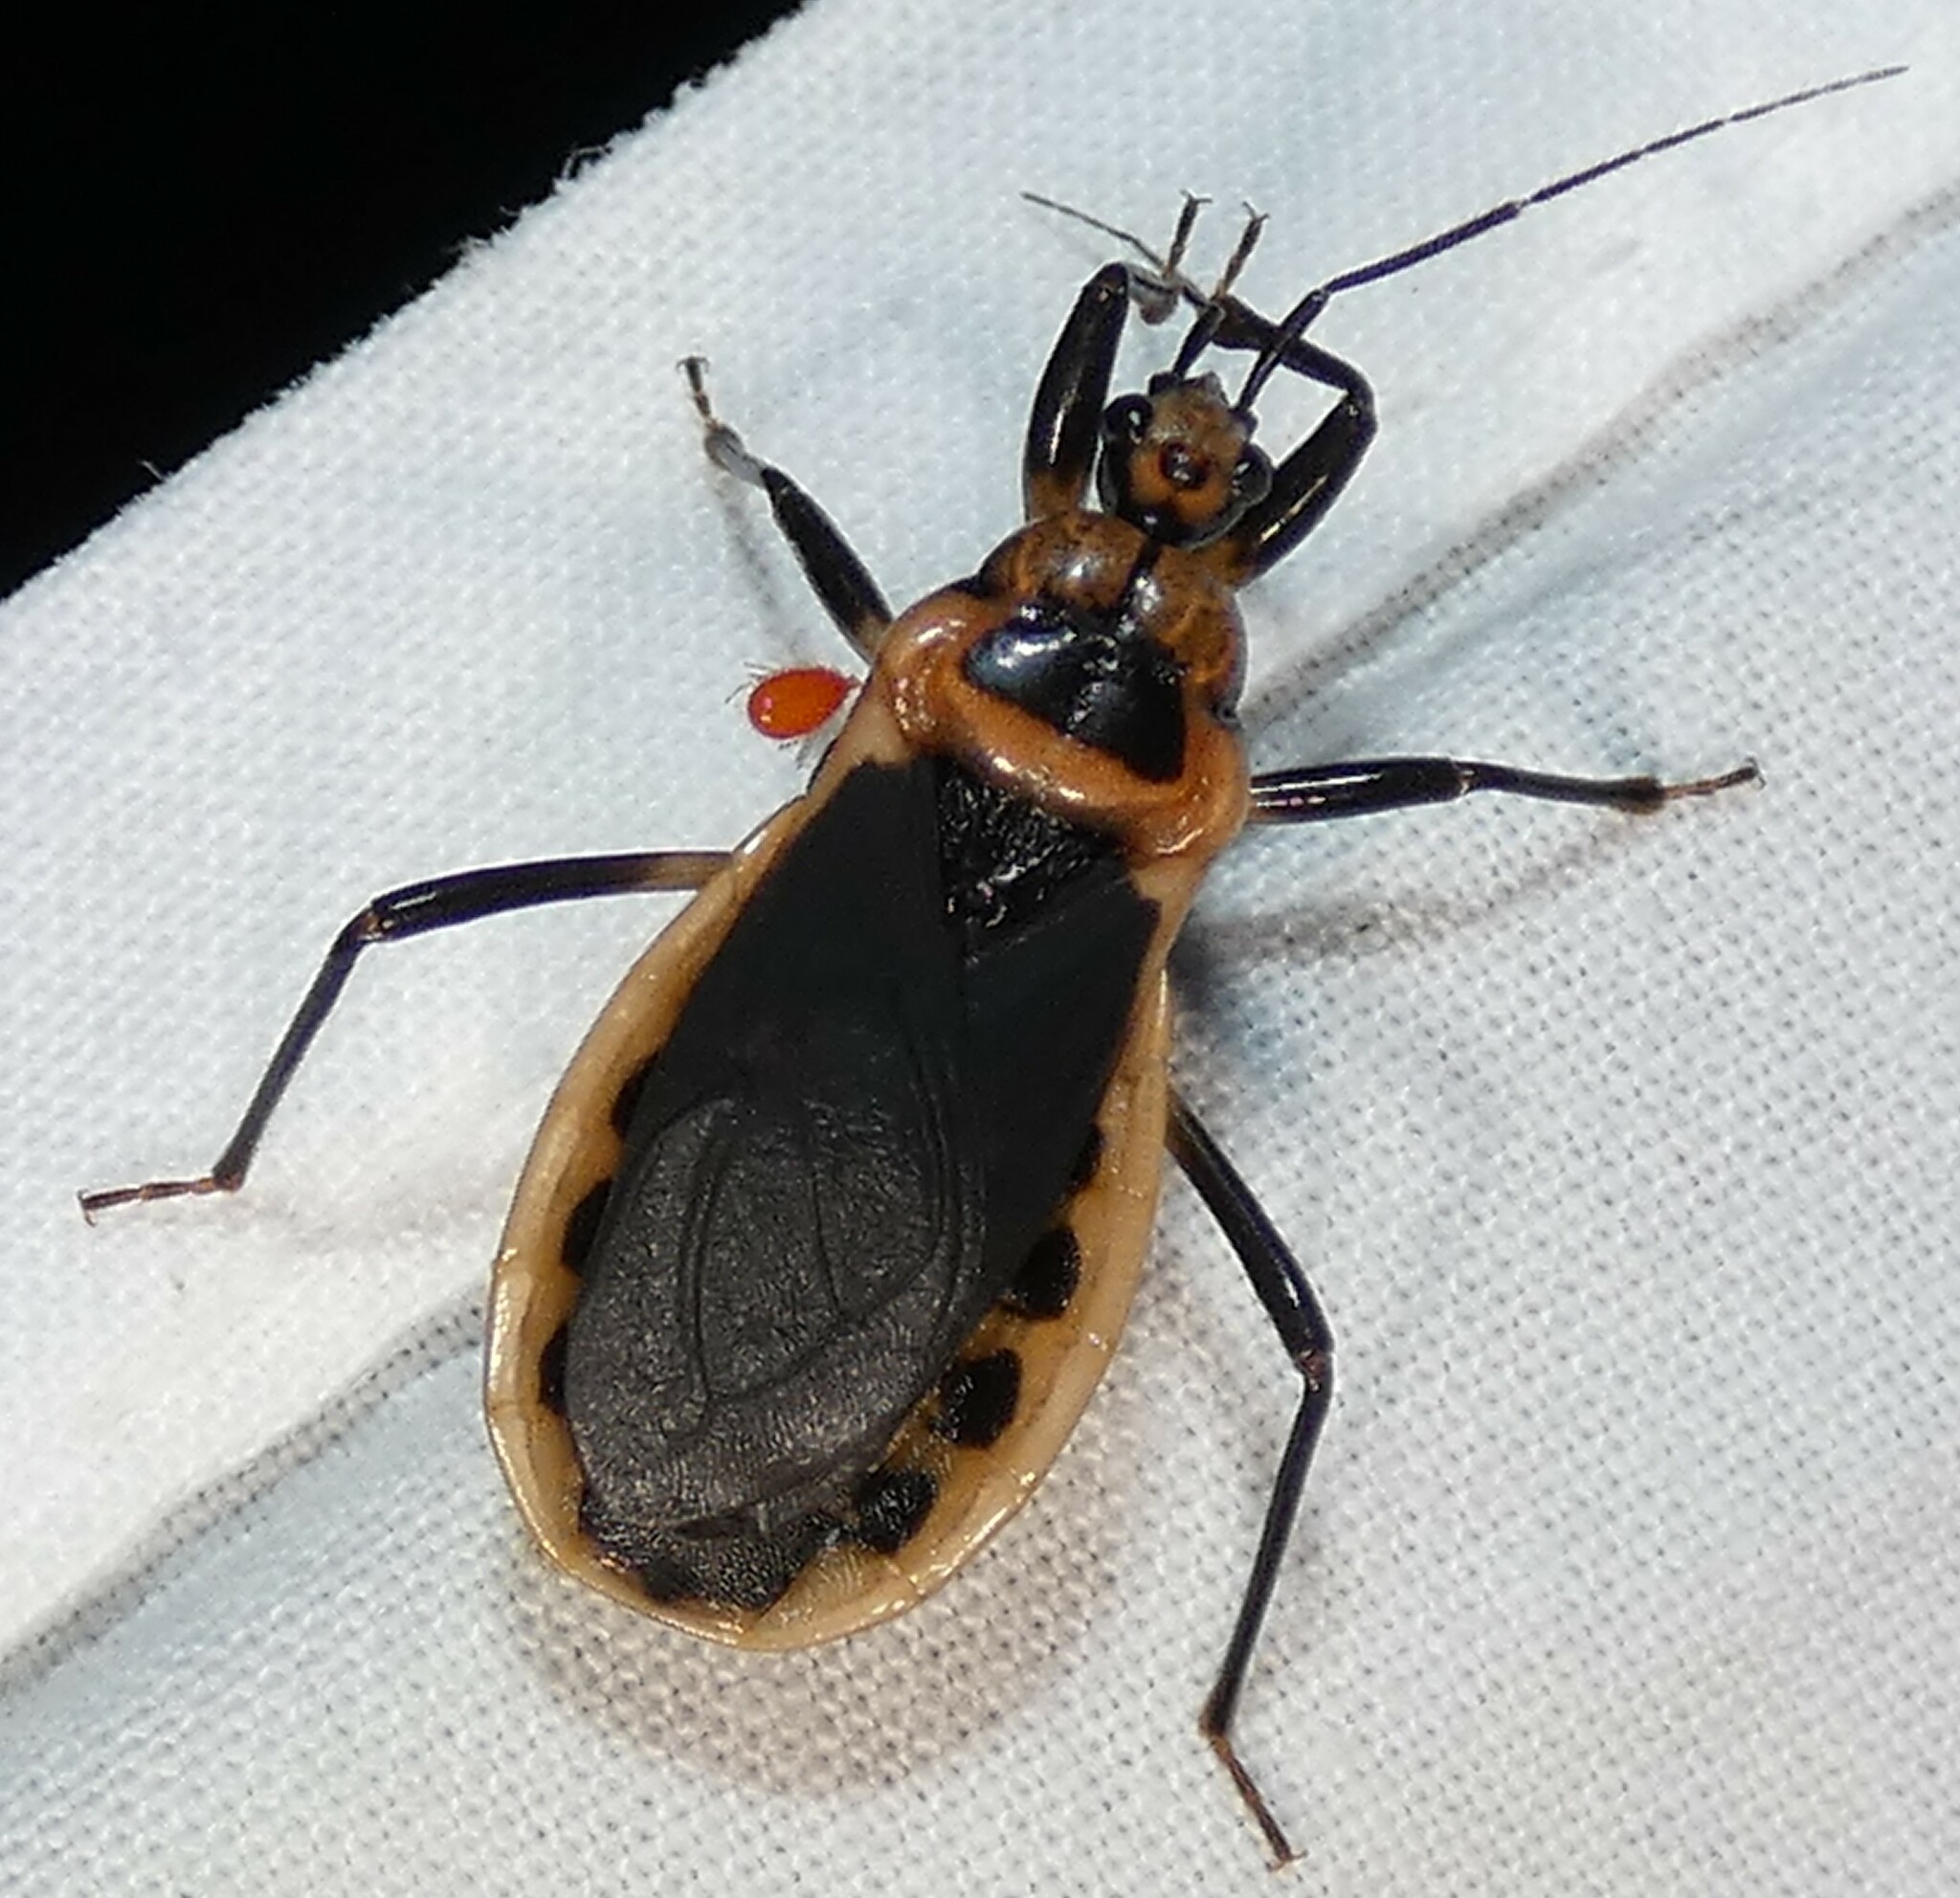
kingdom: Animalia
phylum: Arthropoda
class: Insecta
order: Hemiptera
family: Reduviidae
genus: Rhiginia
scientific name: Rhiginia cruciata
